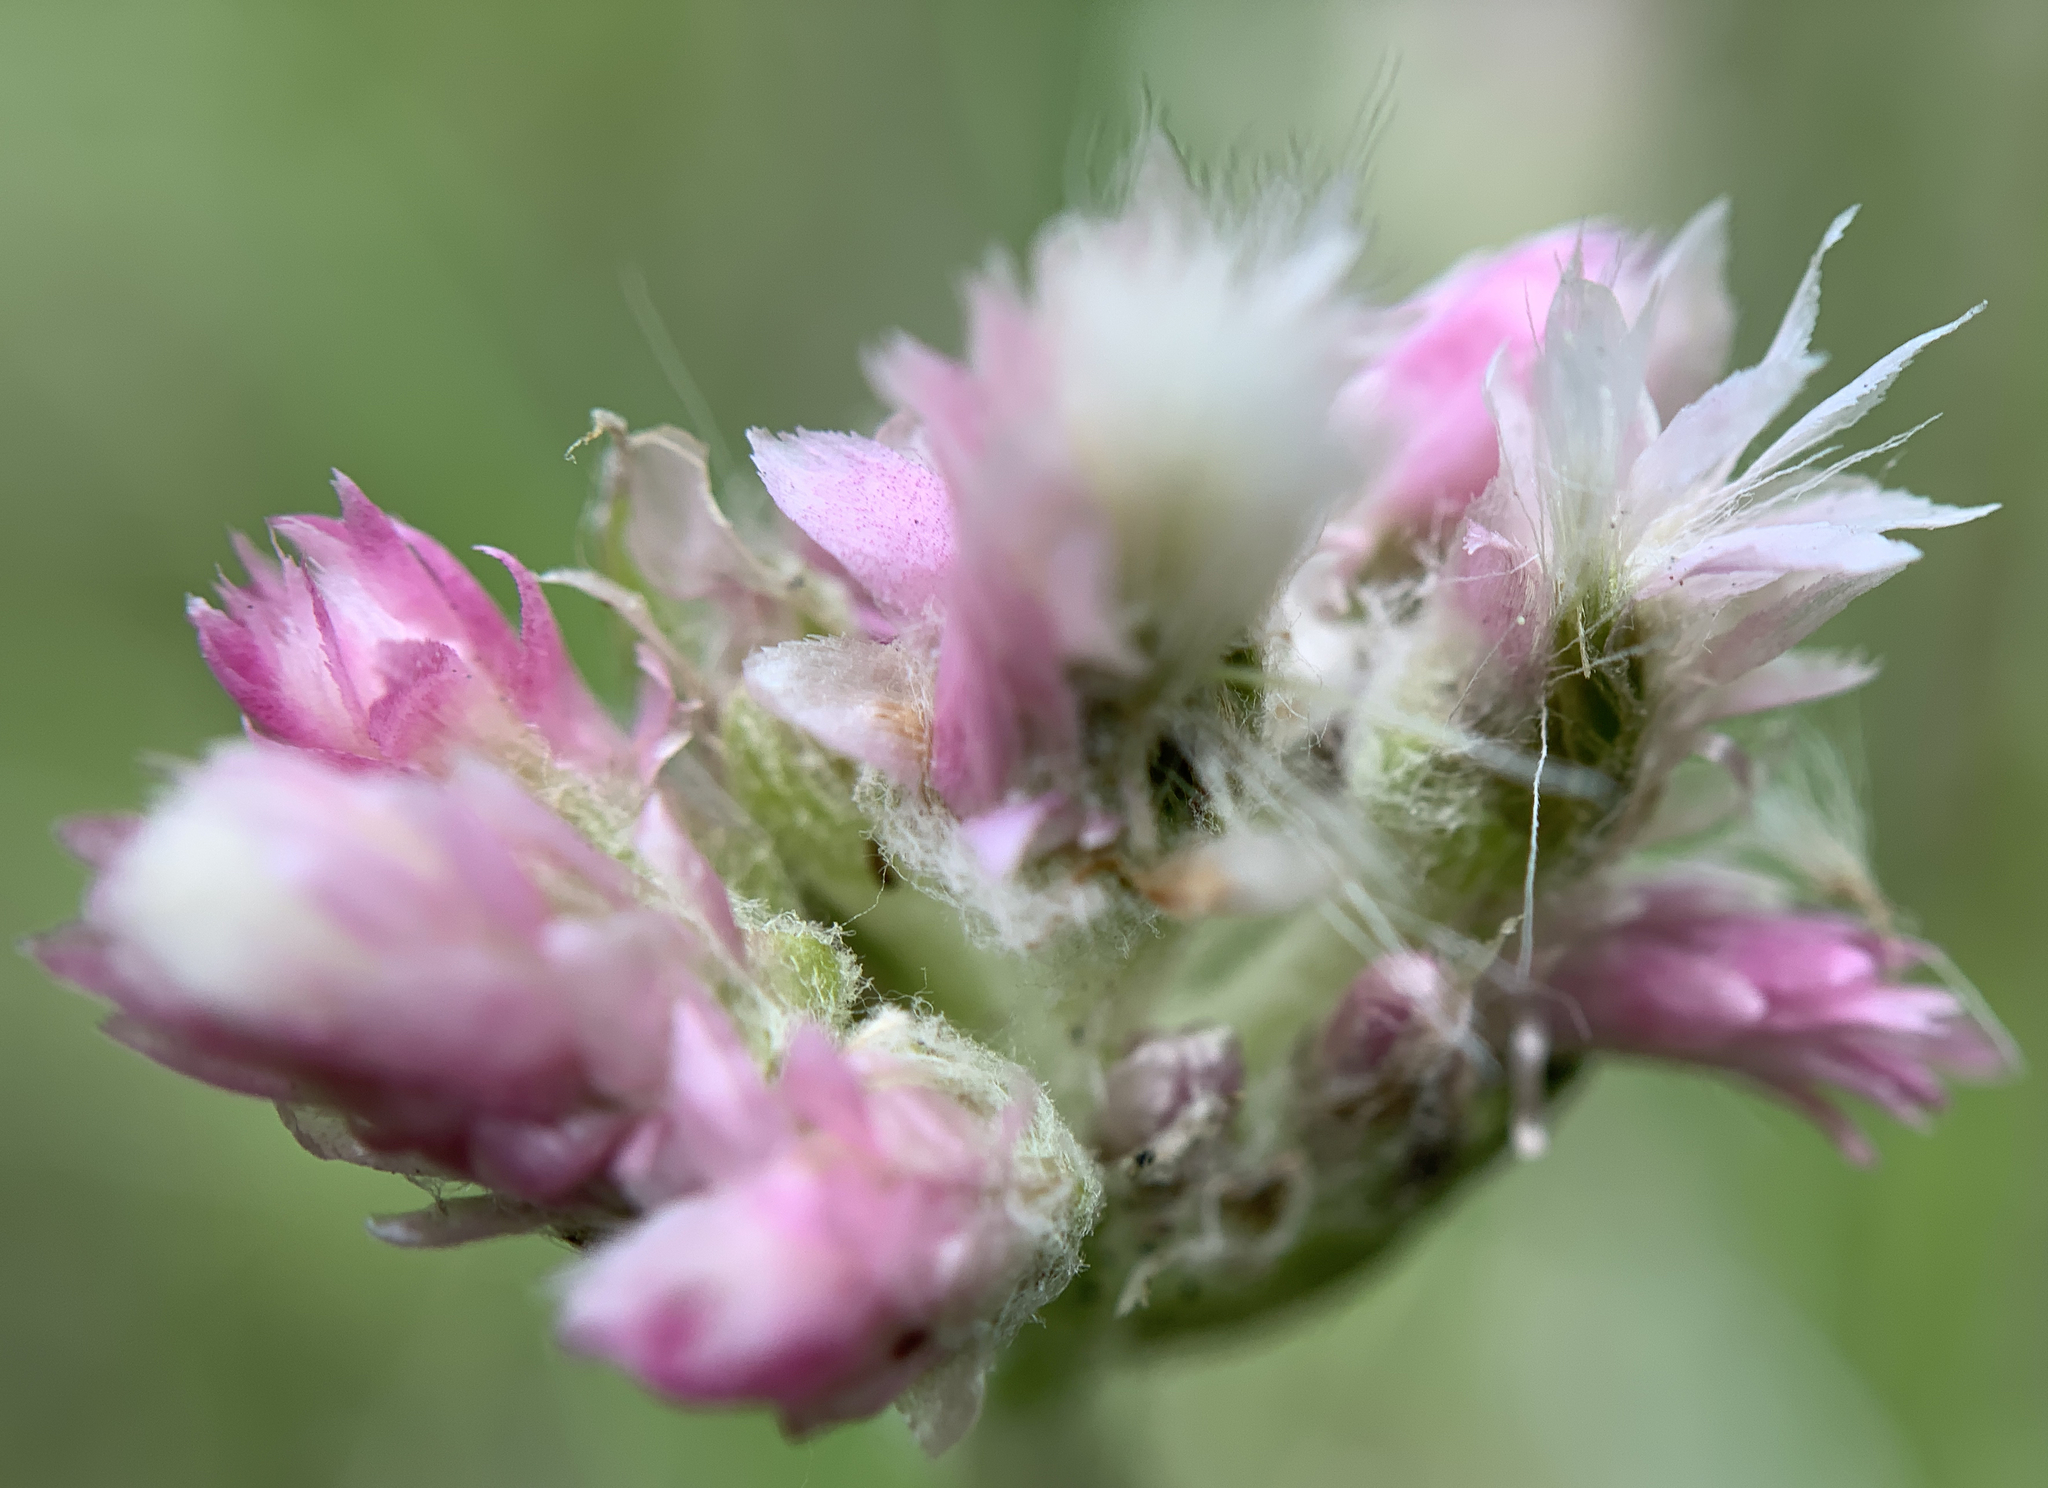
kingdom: Plantae
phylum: Tracheophyta
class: Magnoliopsida
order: Asterales
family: Asteraceae
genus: Antennaria
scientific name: Antennaria rosea
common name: Rosy pussytoes
